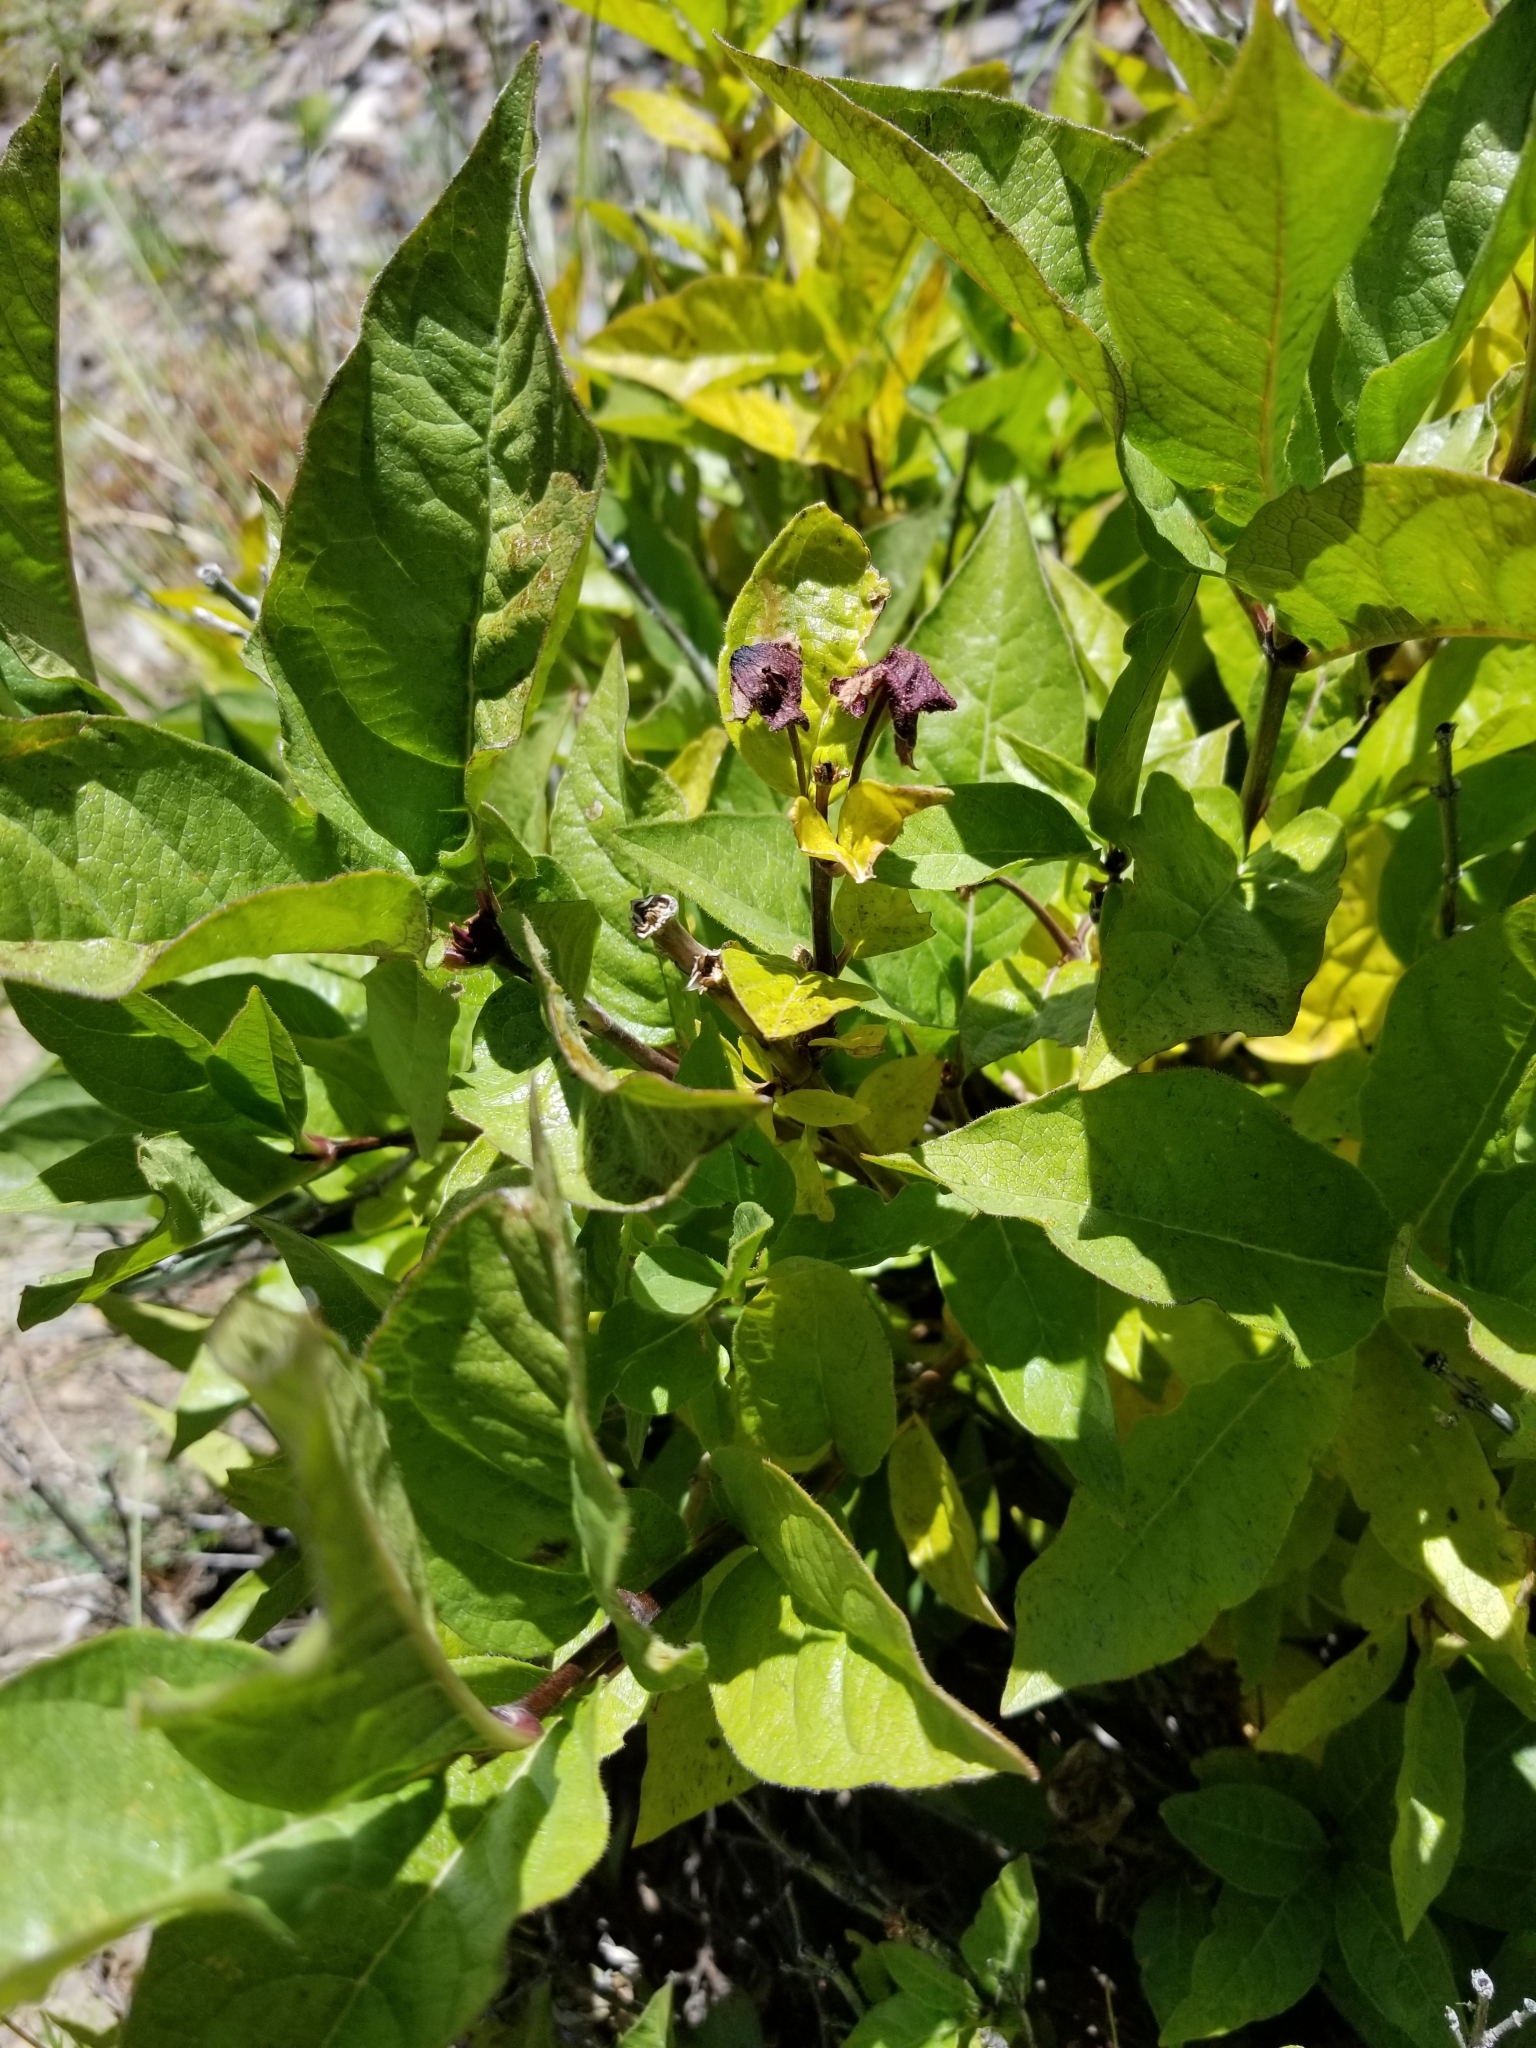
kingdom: Plantae
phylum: Tracheophyta
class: Magnoliopsida
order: Dipsacales
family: Caprifoliaceae
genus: Lonicera
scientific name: Lonicera involucrata
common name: Californian honeysuckle
